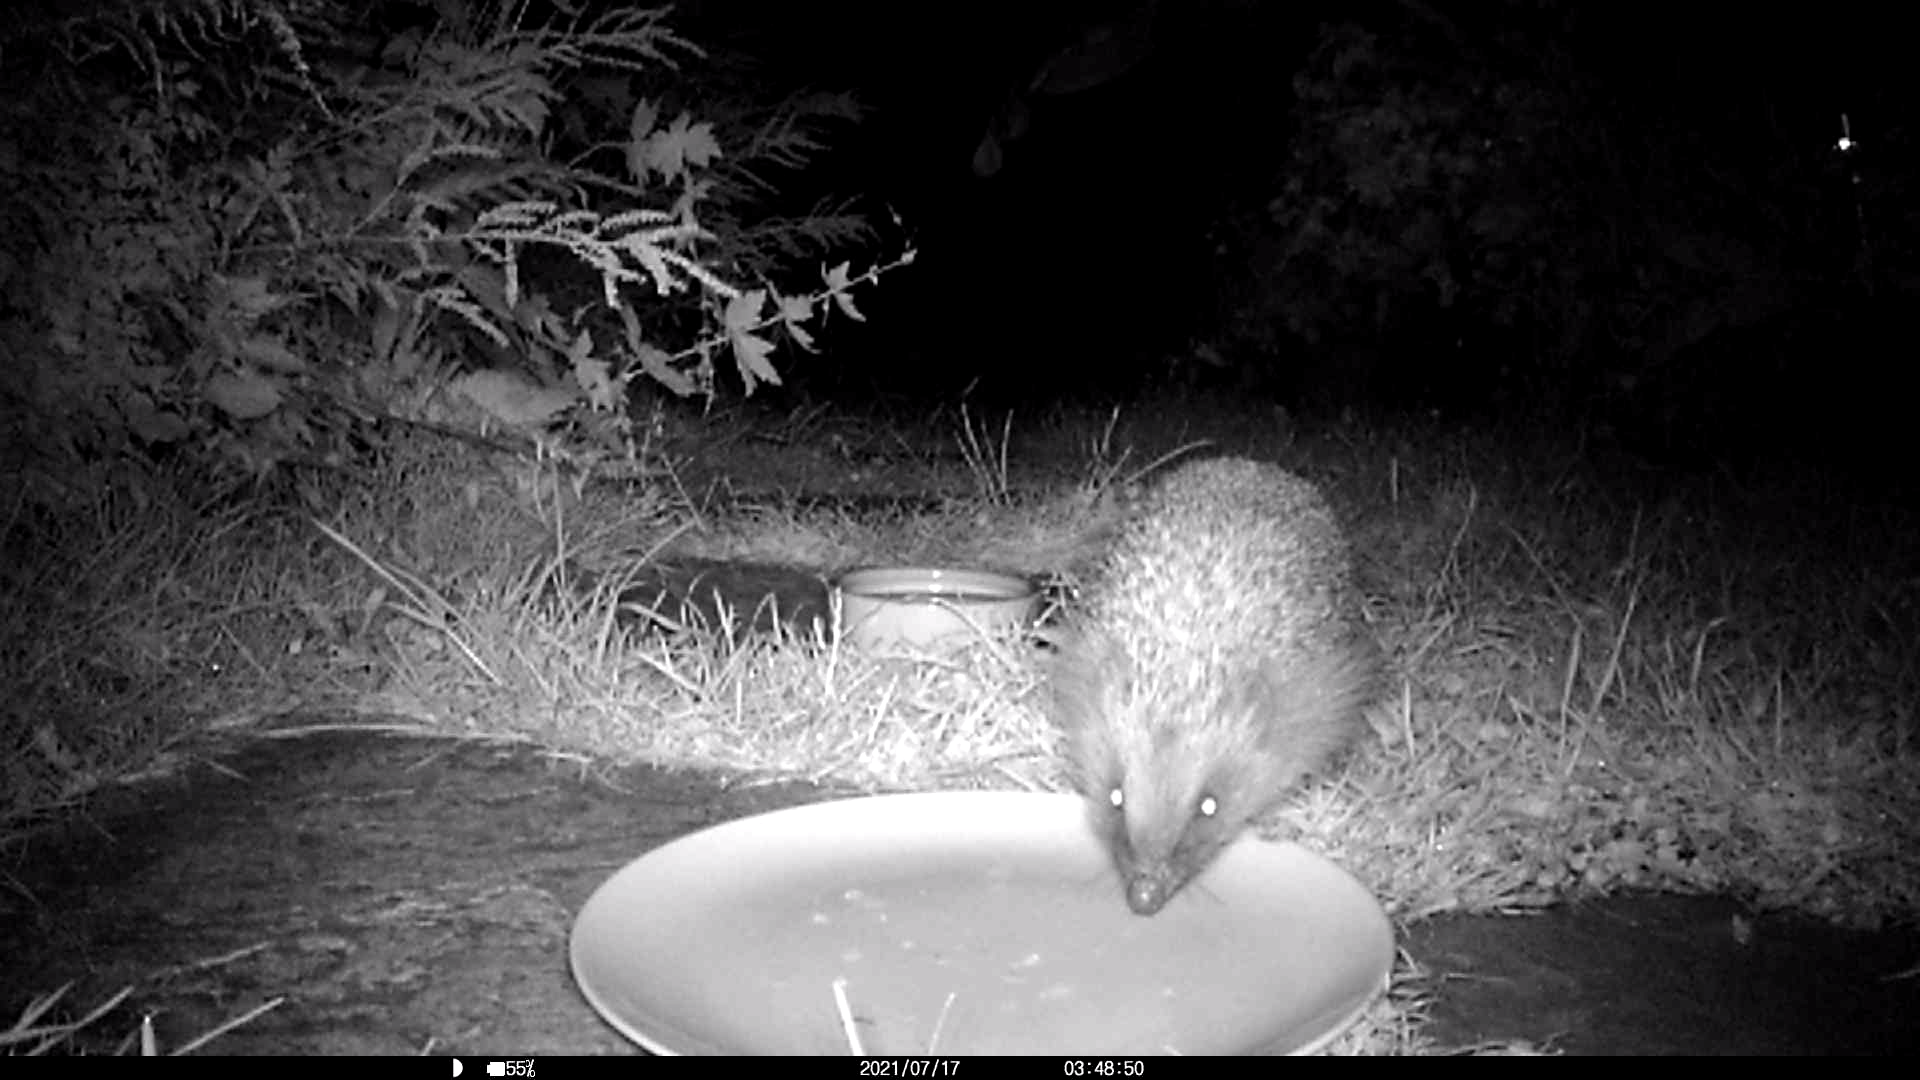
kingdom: Animalia
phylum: Chordata
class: Mammalia
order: Erinaceomorpha
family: Erinaceidae
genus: Erinaceus
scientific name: Erinaceus europaeus
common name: West european hedgehog
